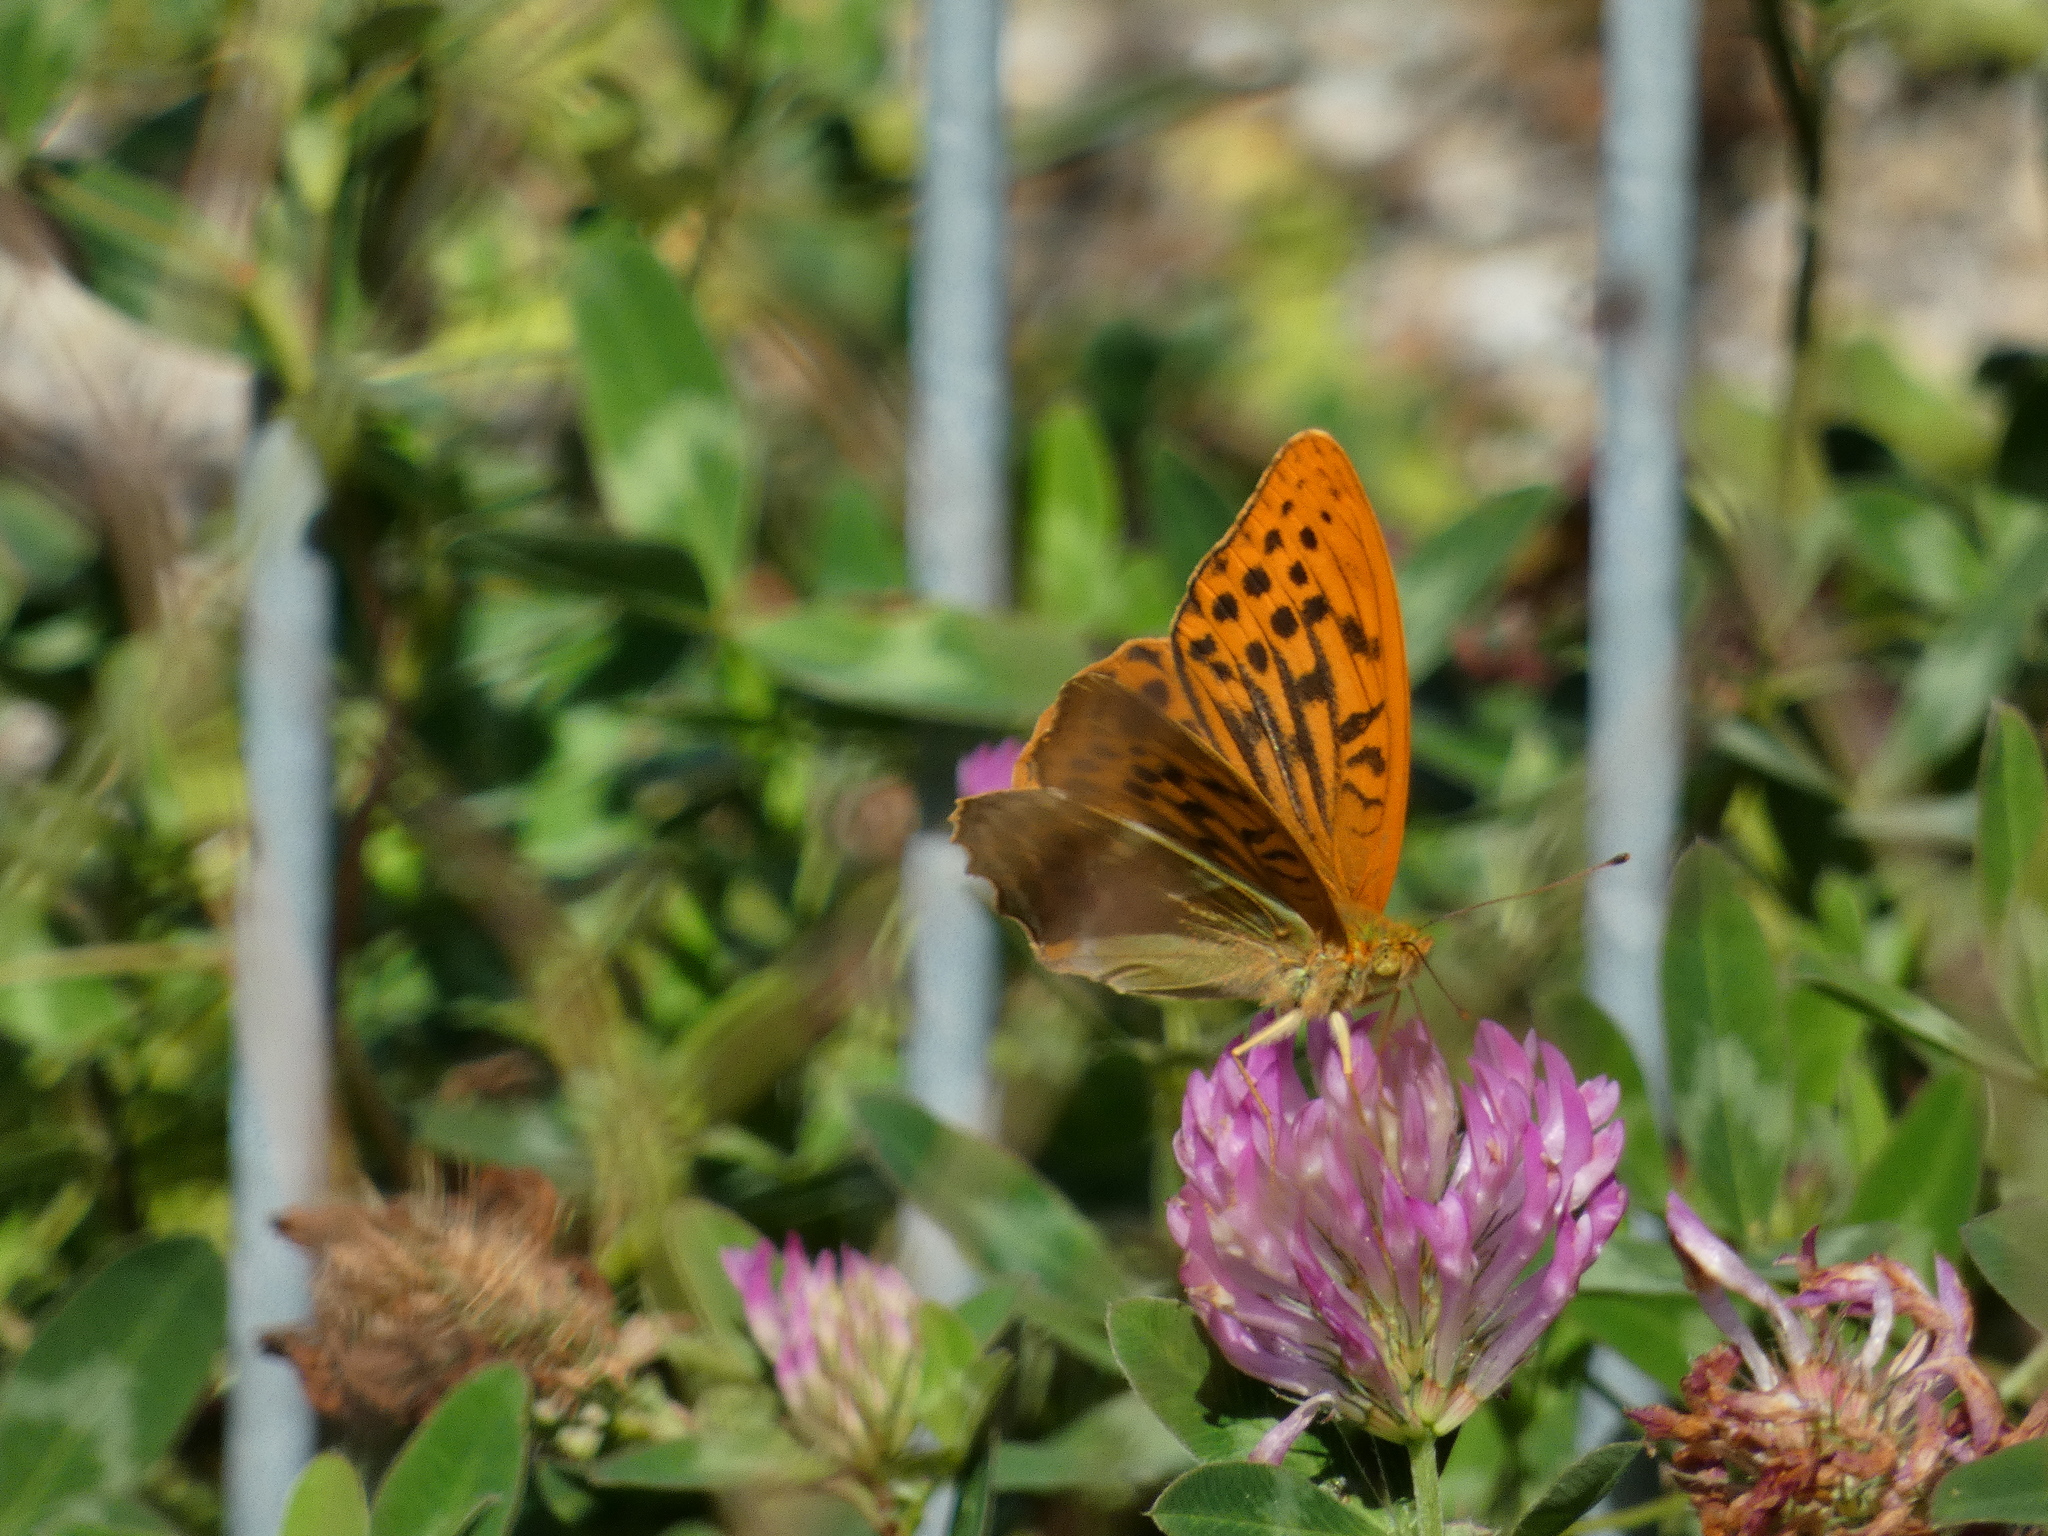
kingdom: Animalia
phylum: Arthropoda
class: Insecta
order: Lepidoptera
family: Nymphalidae
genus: Argynnis
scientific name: Argynnis paphia
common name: Silver-washed fritillary
